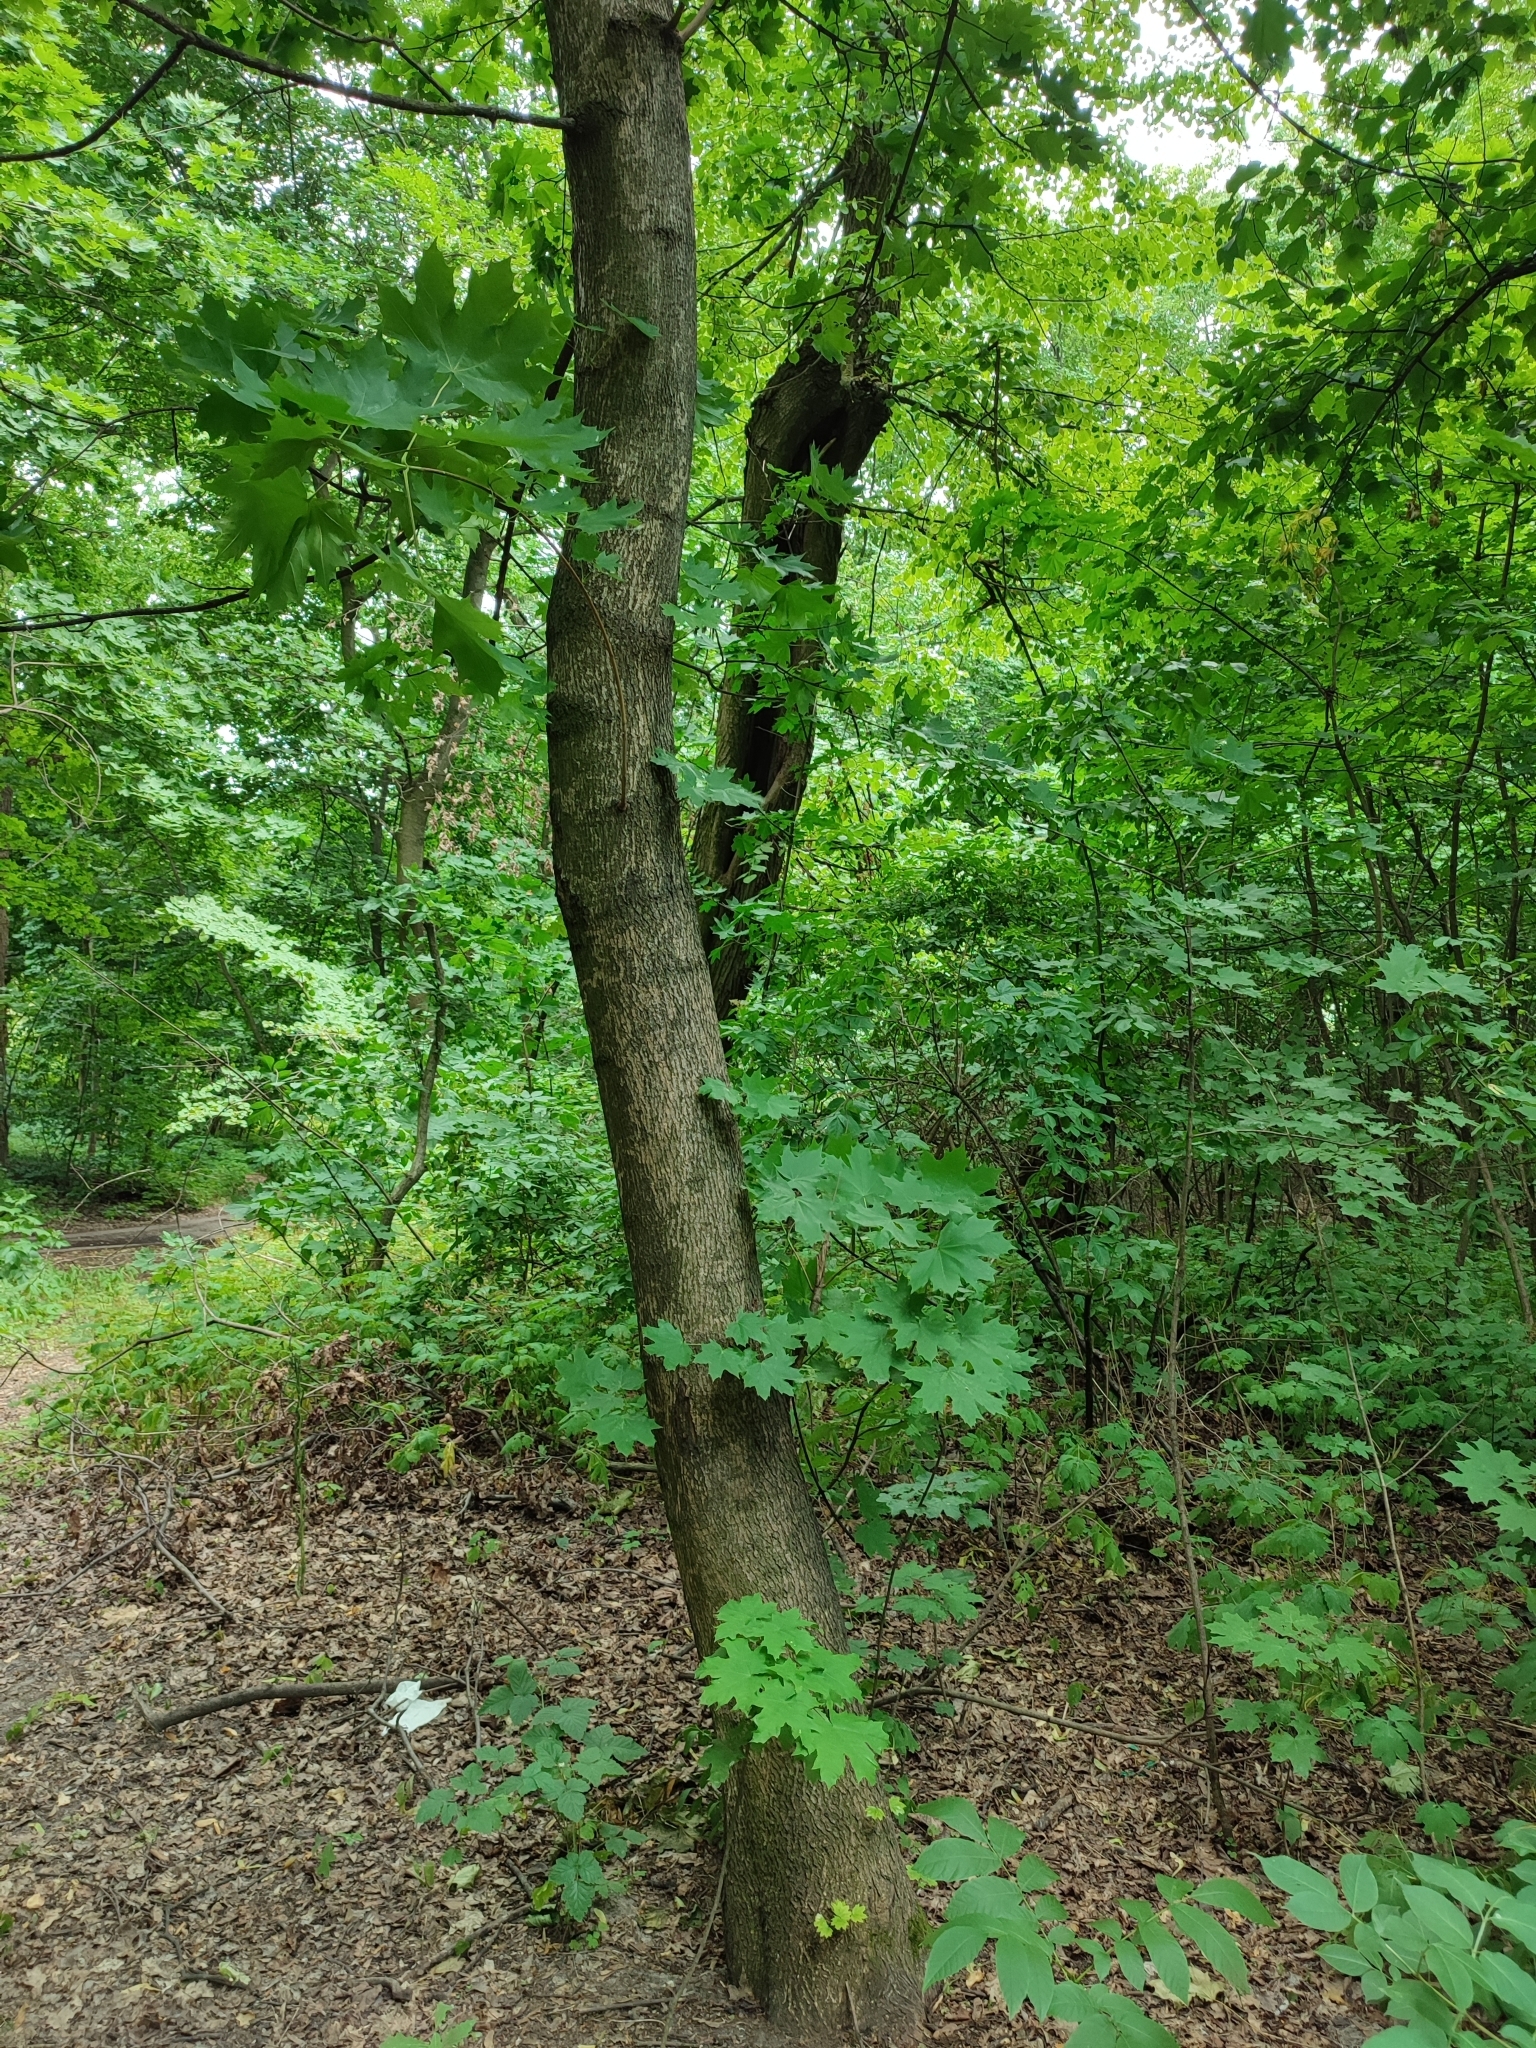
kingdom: Plantae
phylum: Tracheophyta
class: Magnoliopsida
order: Sapindales
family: Sapindaceae
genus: Acer
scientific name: Acer platanoides
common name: Norway maple
